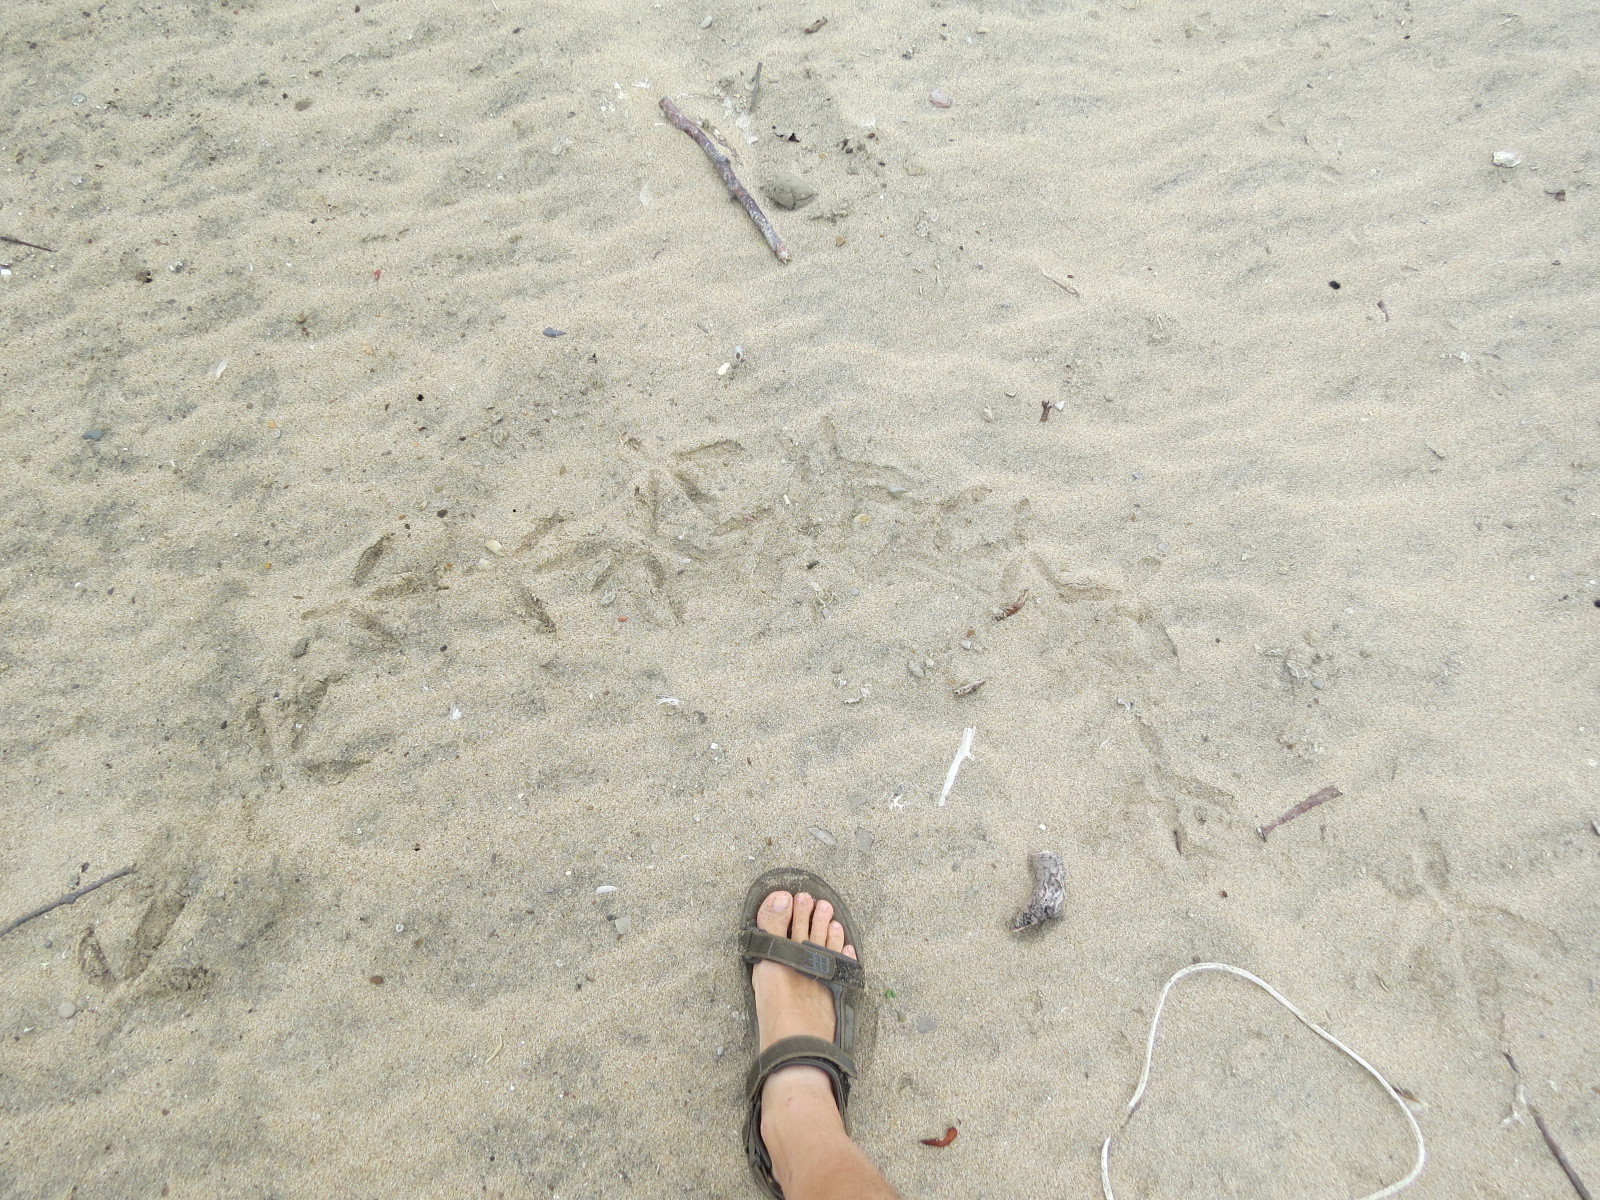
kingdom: Animalia
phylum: Chordata
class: Aves
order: Pelecaniformes
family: Ardeidae
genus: Ardea
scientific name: Ardea herodias
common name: Great blue heron
